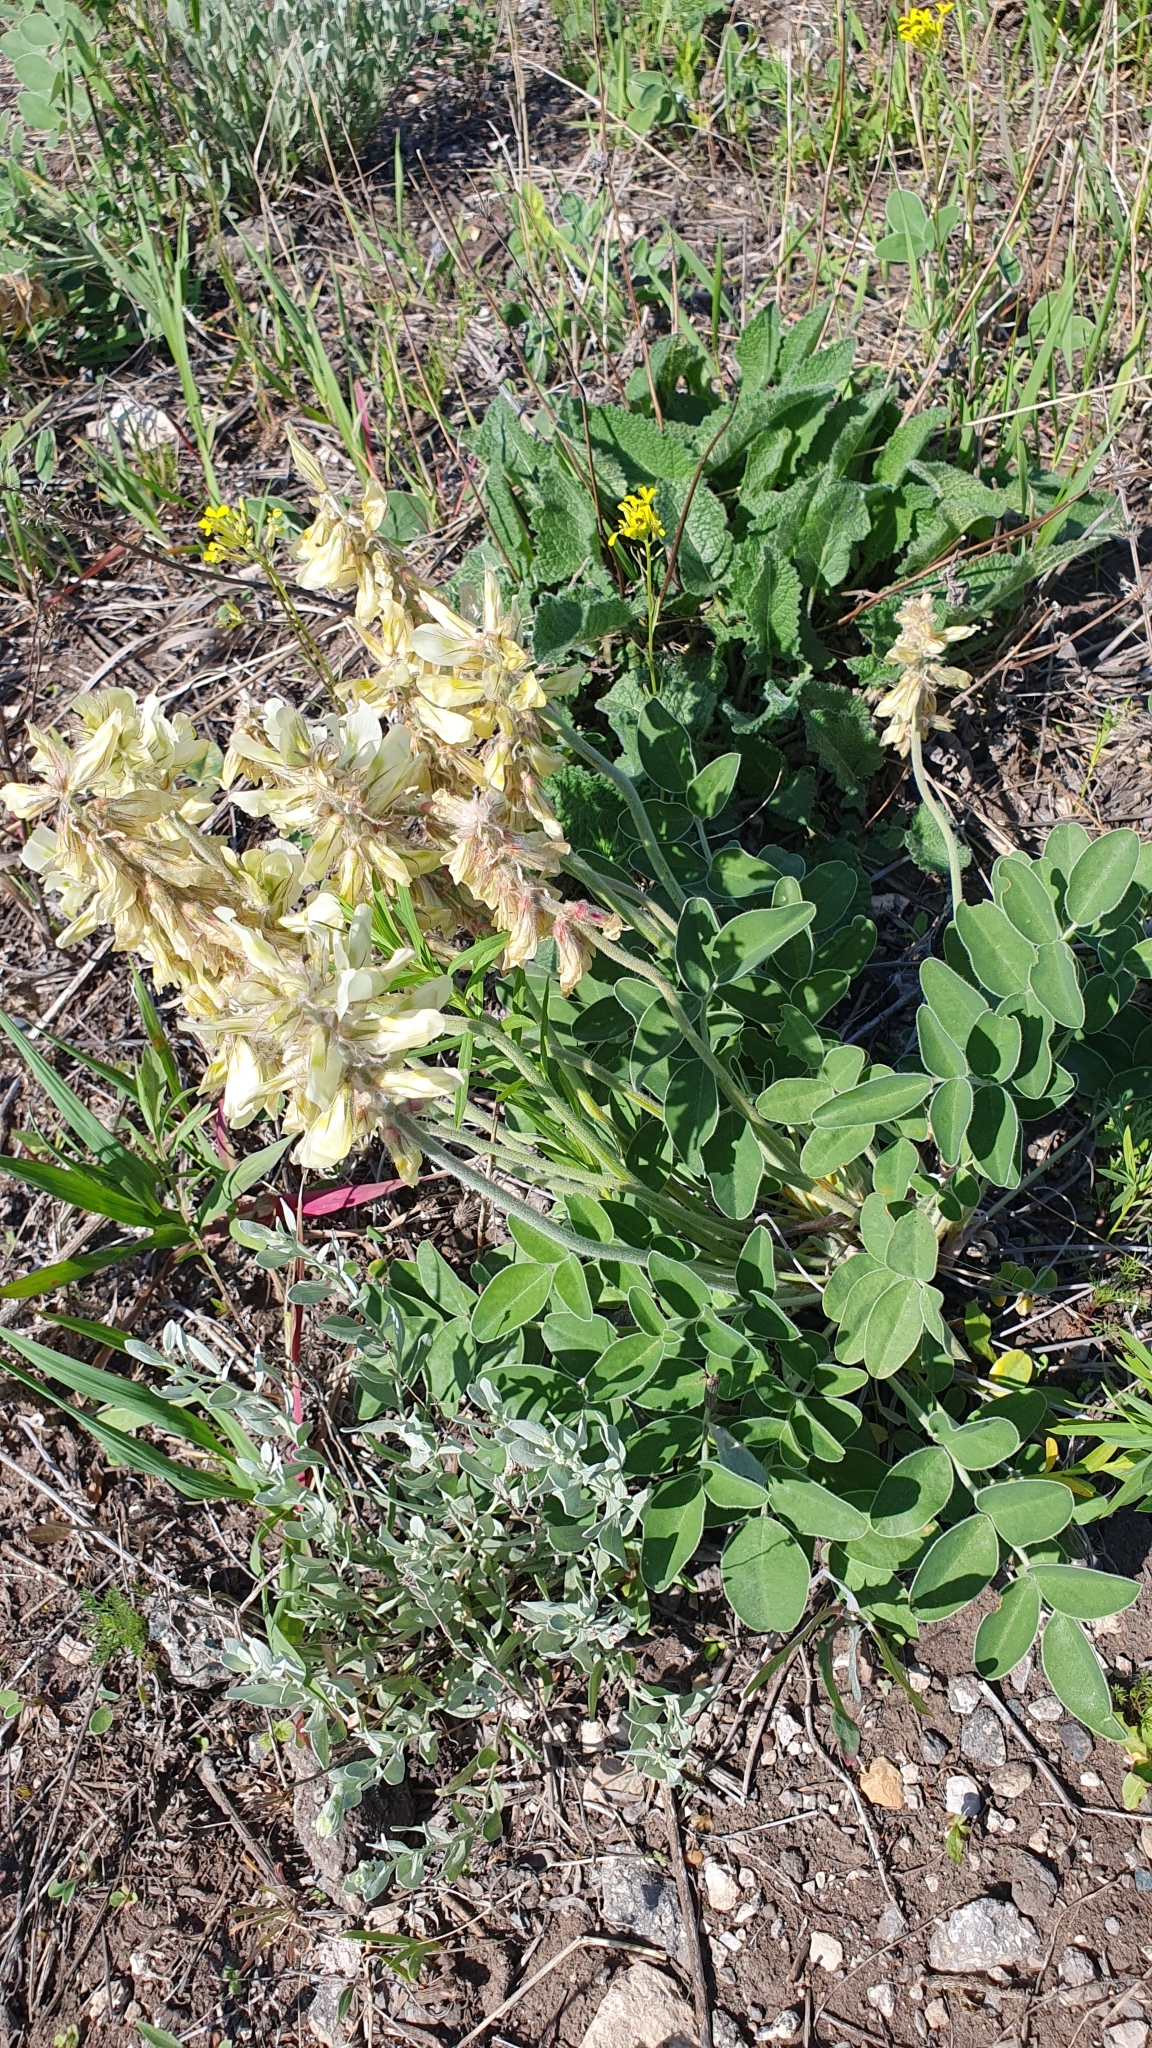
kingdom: Plantae
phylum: Tracheophyta
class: Magnoliopsida
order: Fabales
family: Fabaceae
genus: Hedysarum
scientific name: Hedysarum grandiflorum
